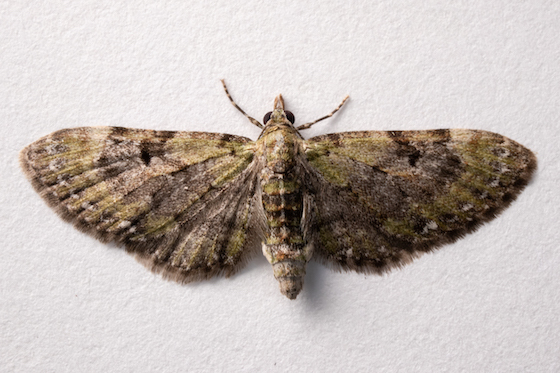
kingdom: Animalia
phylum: Arthropoda
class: Insecta
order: Lepidoptera
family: Geometridae
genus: Eupithecia
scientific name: Eupithecia miserulata
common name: Common eupithecia
